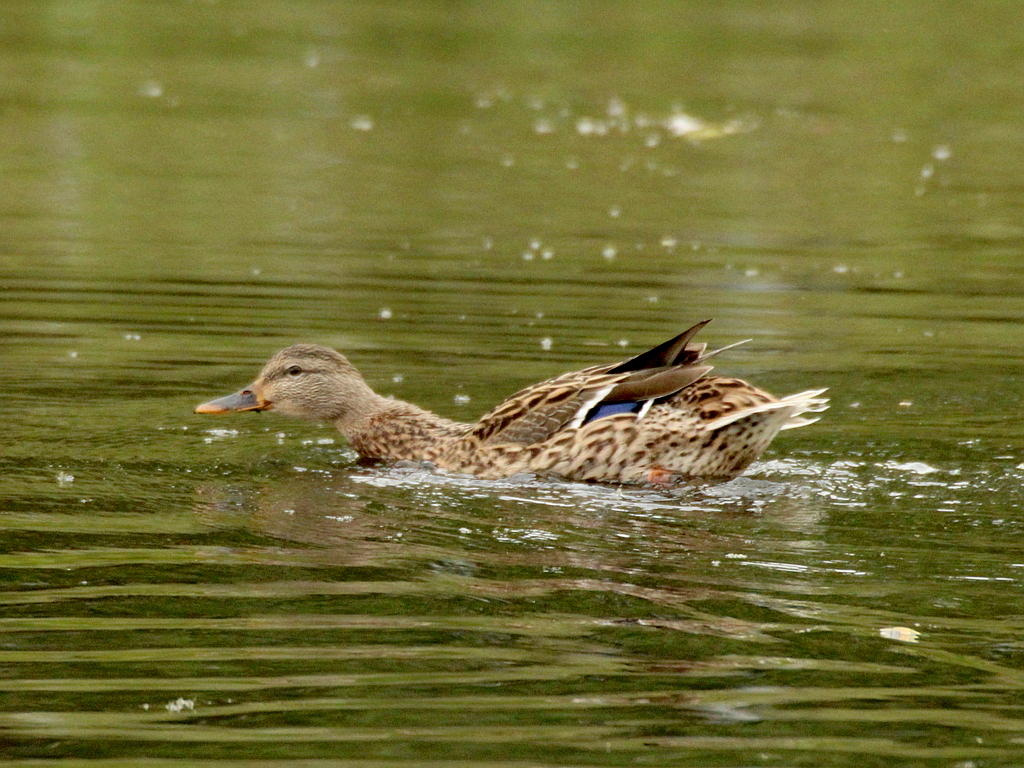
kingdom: Animalia
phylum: Chordata
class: Aves
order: Anseriformes
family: Anatidae
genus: Anas
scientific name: Anas platyrhynchos
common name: Mallard
